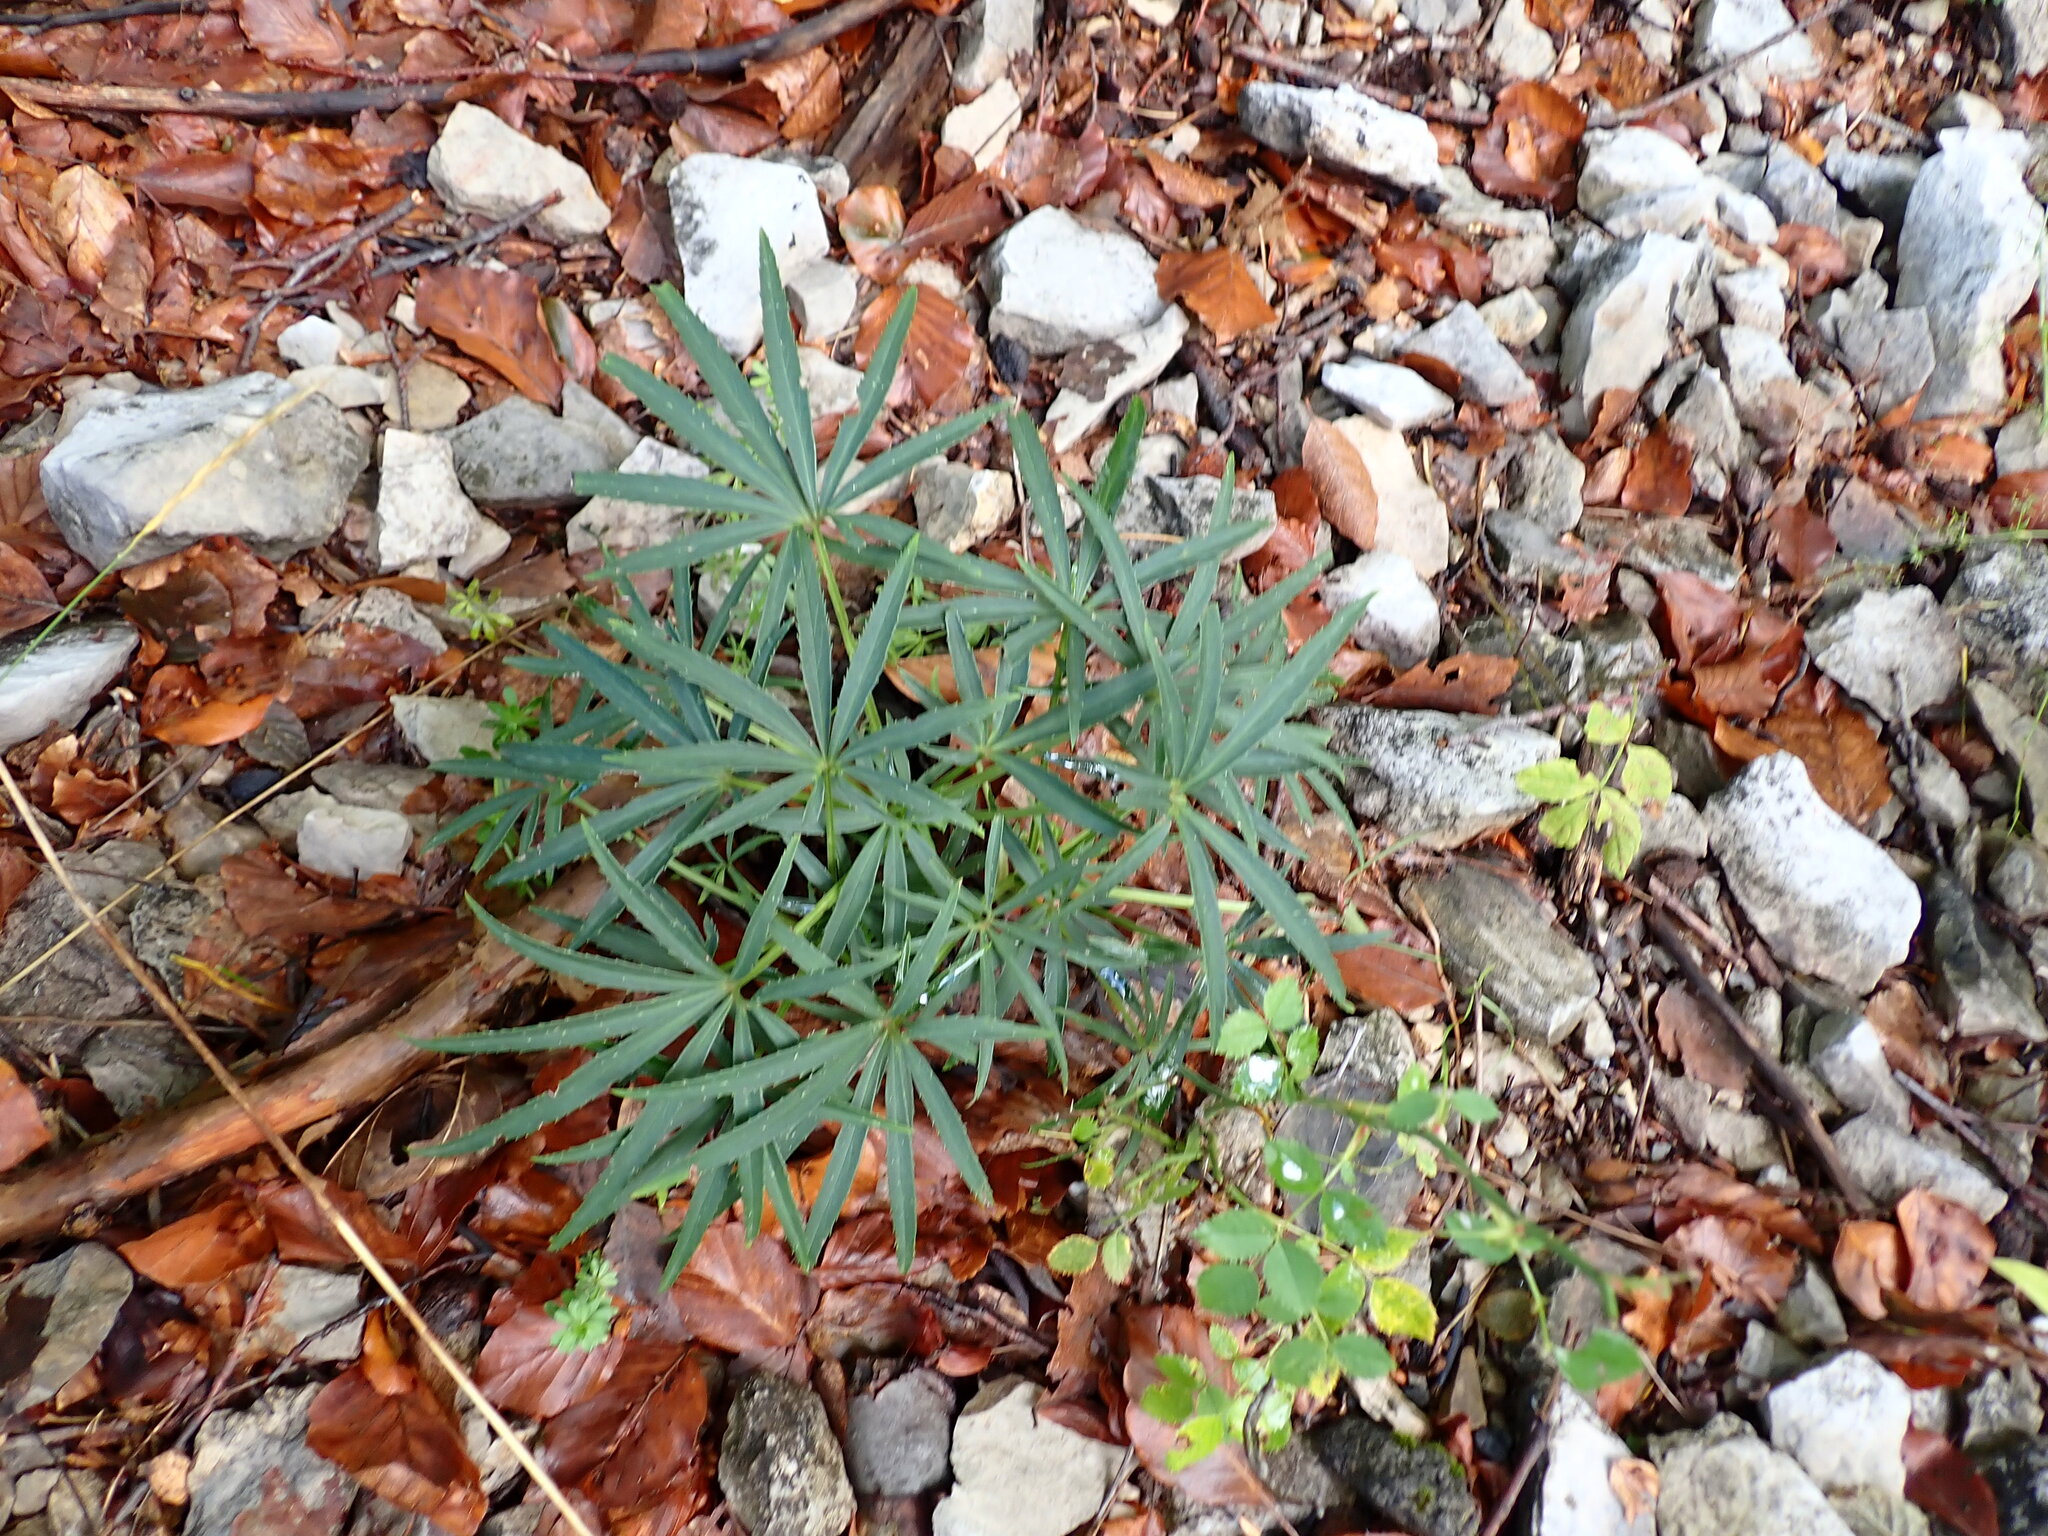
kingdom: Plantae
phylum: Tracheophyta
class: Magnoliopsida
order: Ranunculales
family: Ranunculaceae
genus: Helleborus
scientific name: Helleborus foetidus
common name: Stinking hellebore
